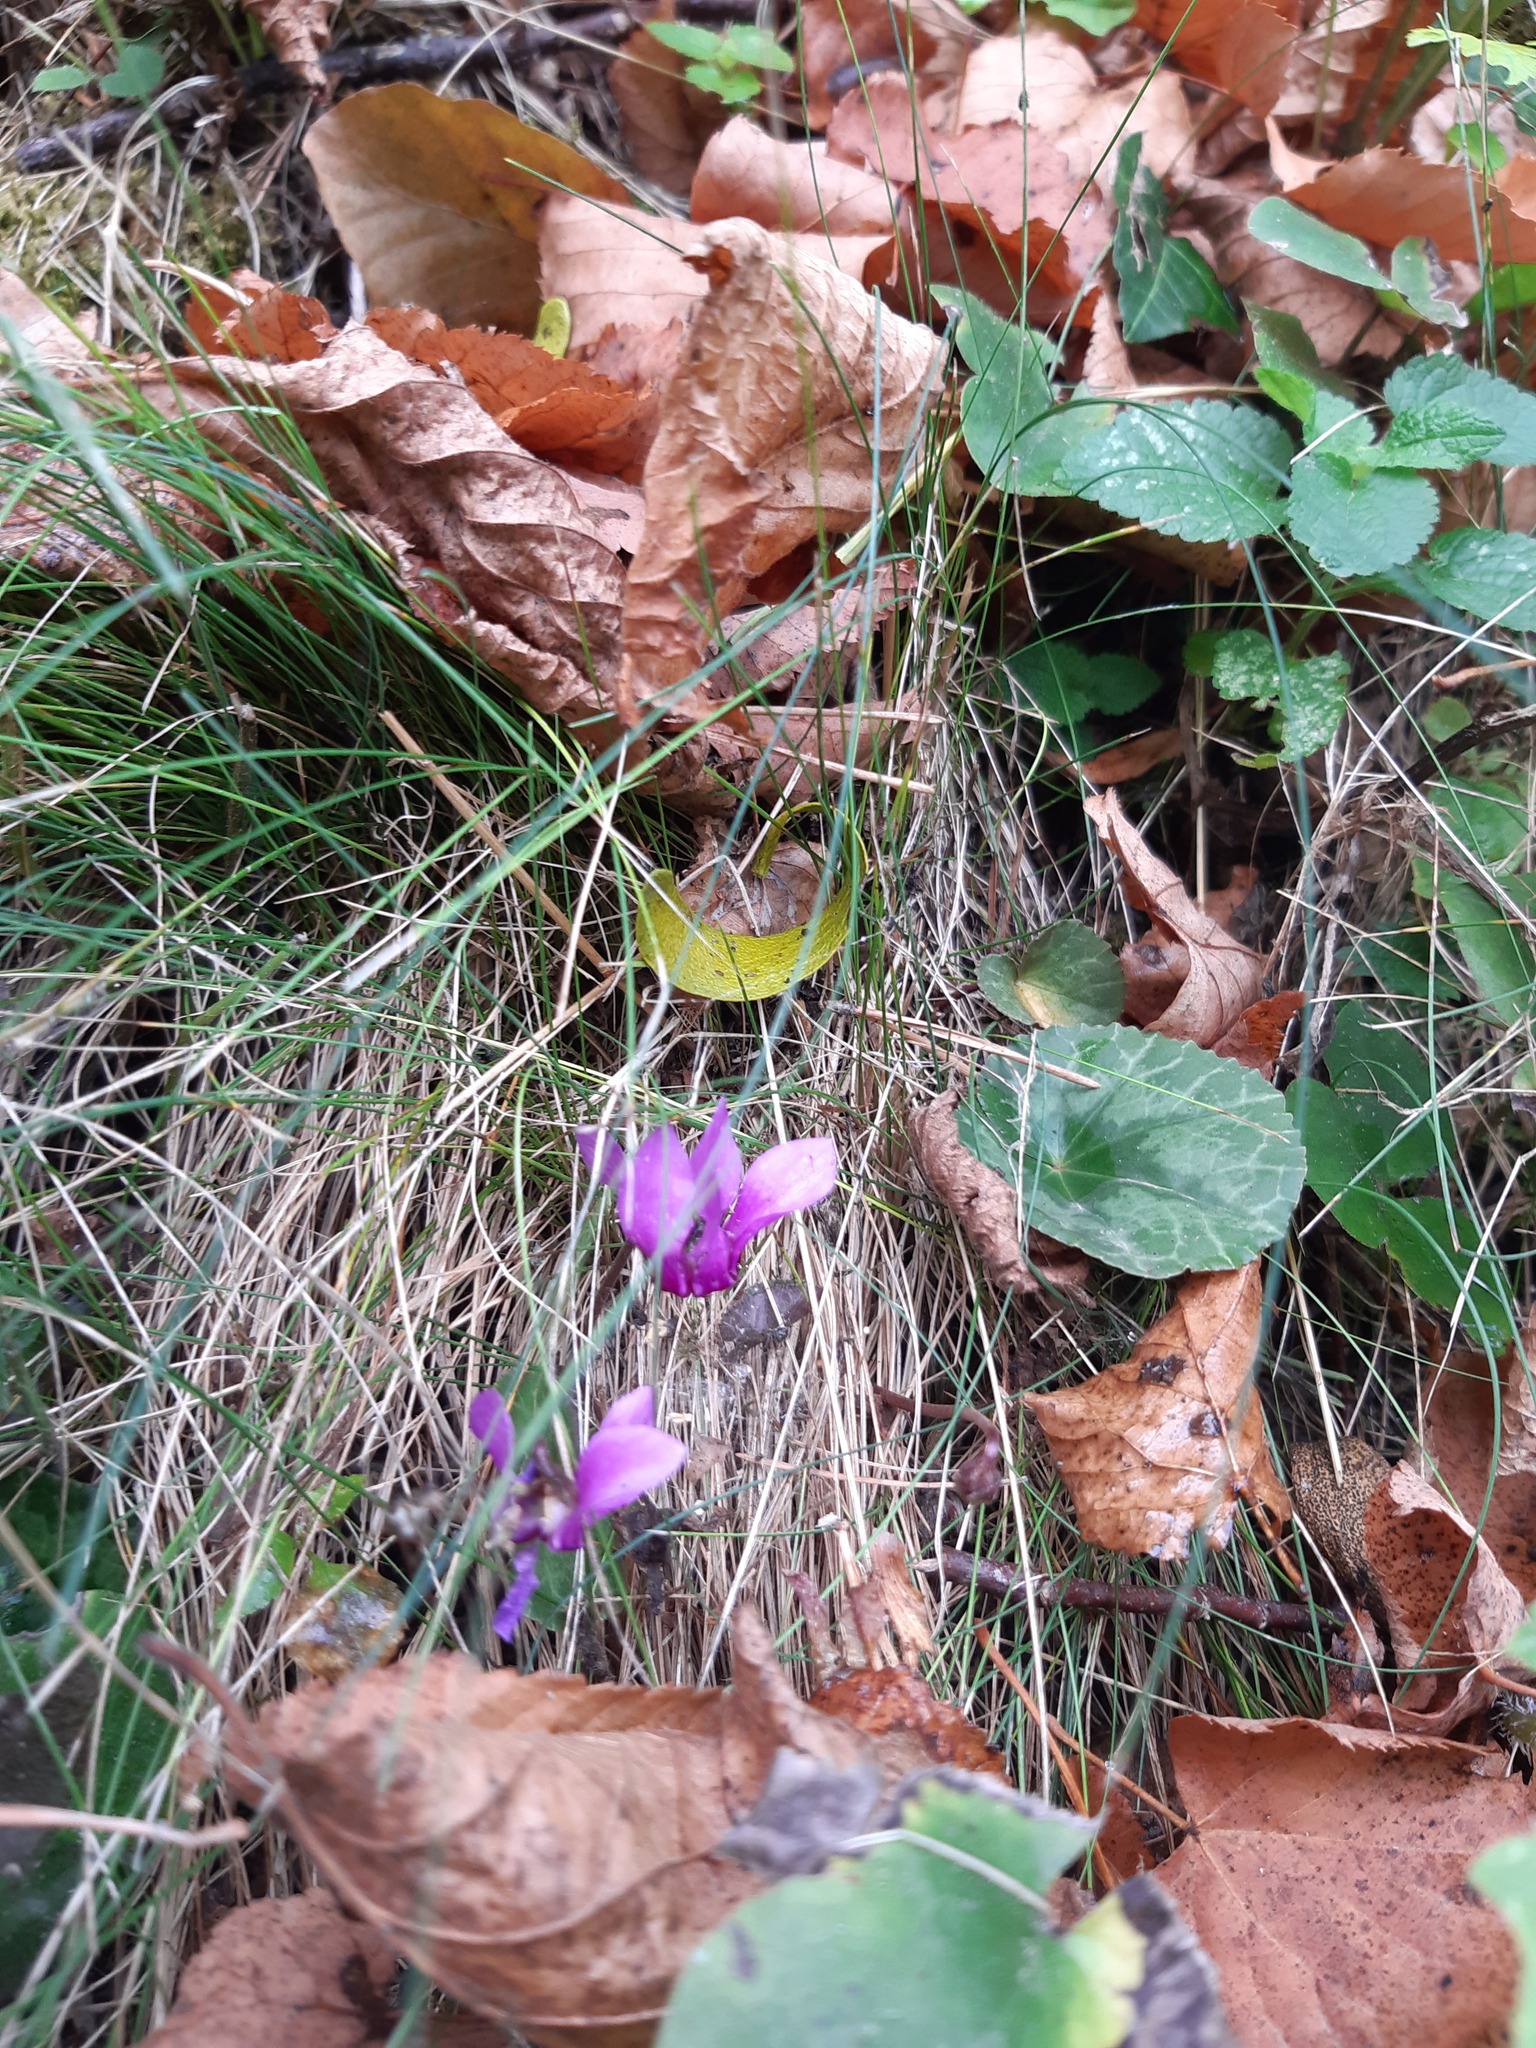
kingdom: Plantae
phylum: Tracheophyta
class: Magnoliopsida
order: Ericales
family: Primulaceae
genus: Cyclamen
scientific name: Cyclamen purpurascens
